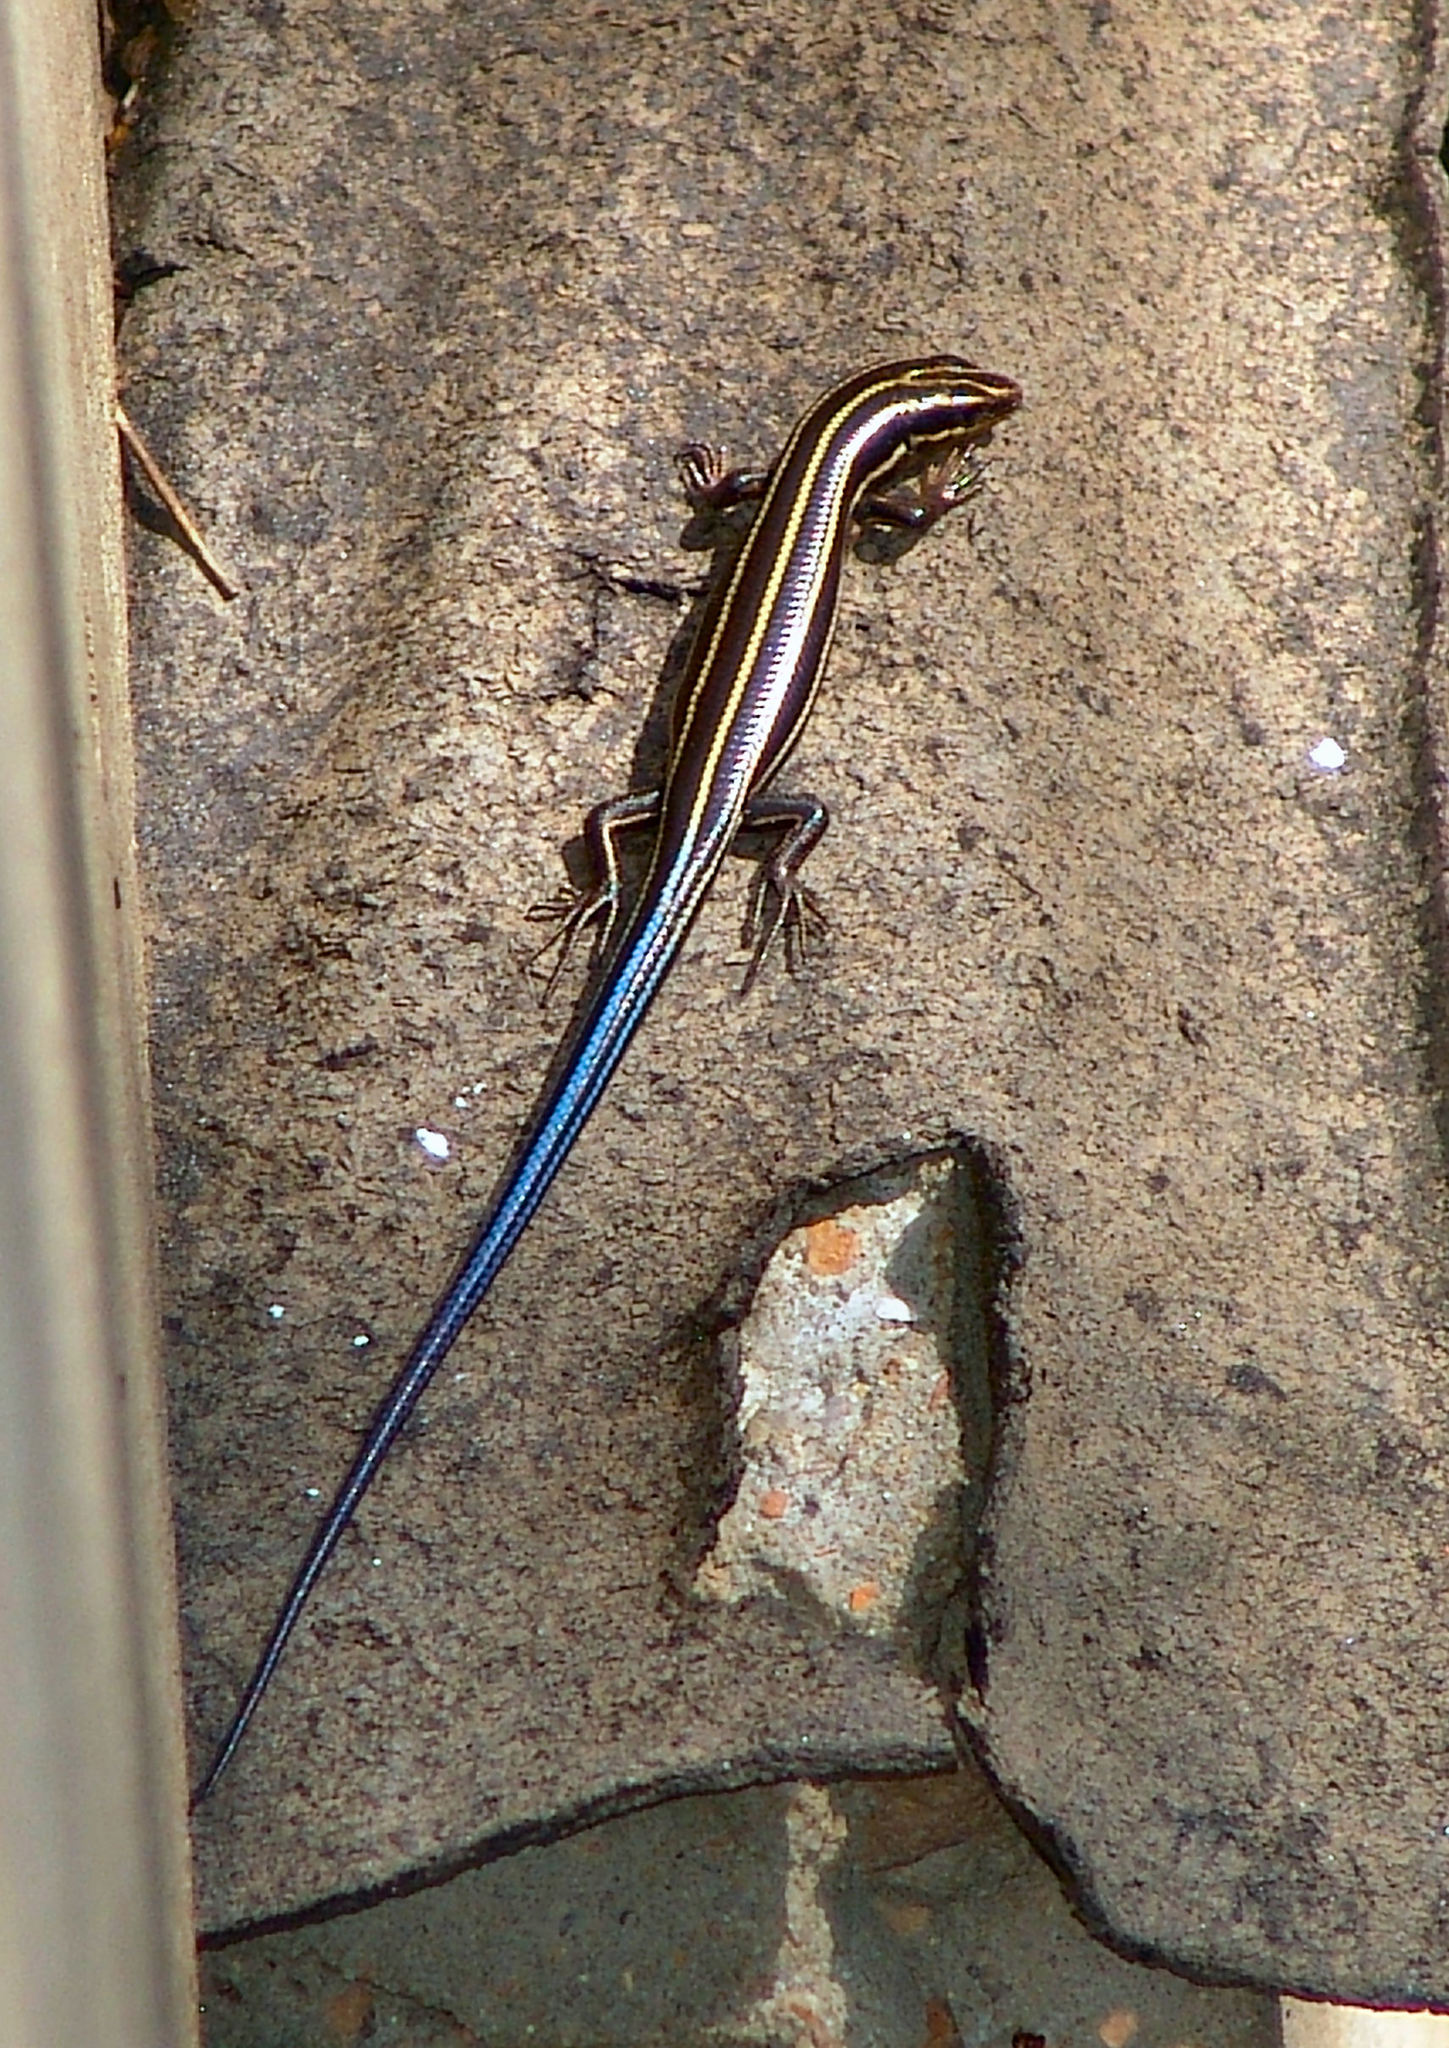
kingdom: Animalia
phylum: Chordata
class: Squamata
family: Scincidae
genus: Plestiodon
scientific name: Plestiodon fasciatus
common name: Five-lined skink
